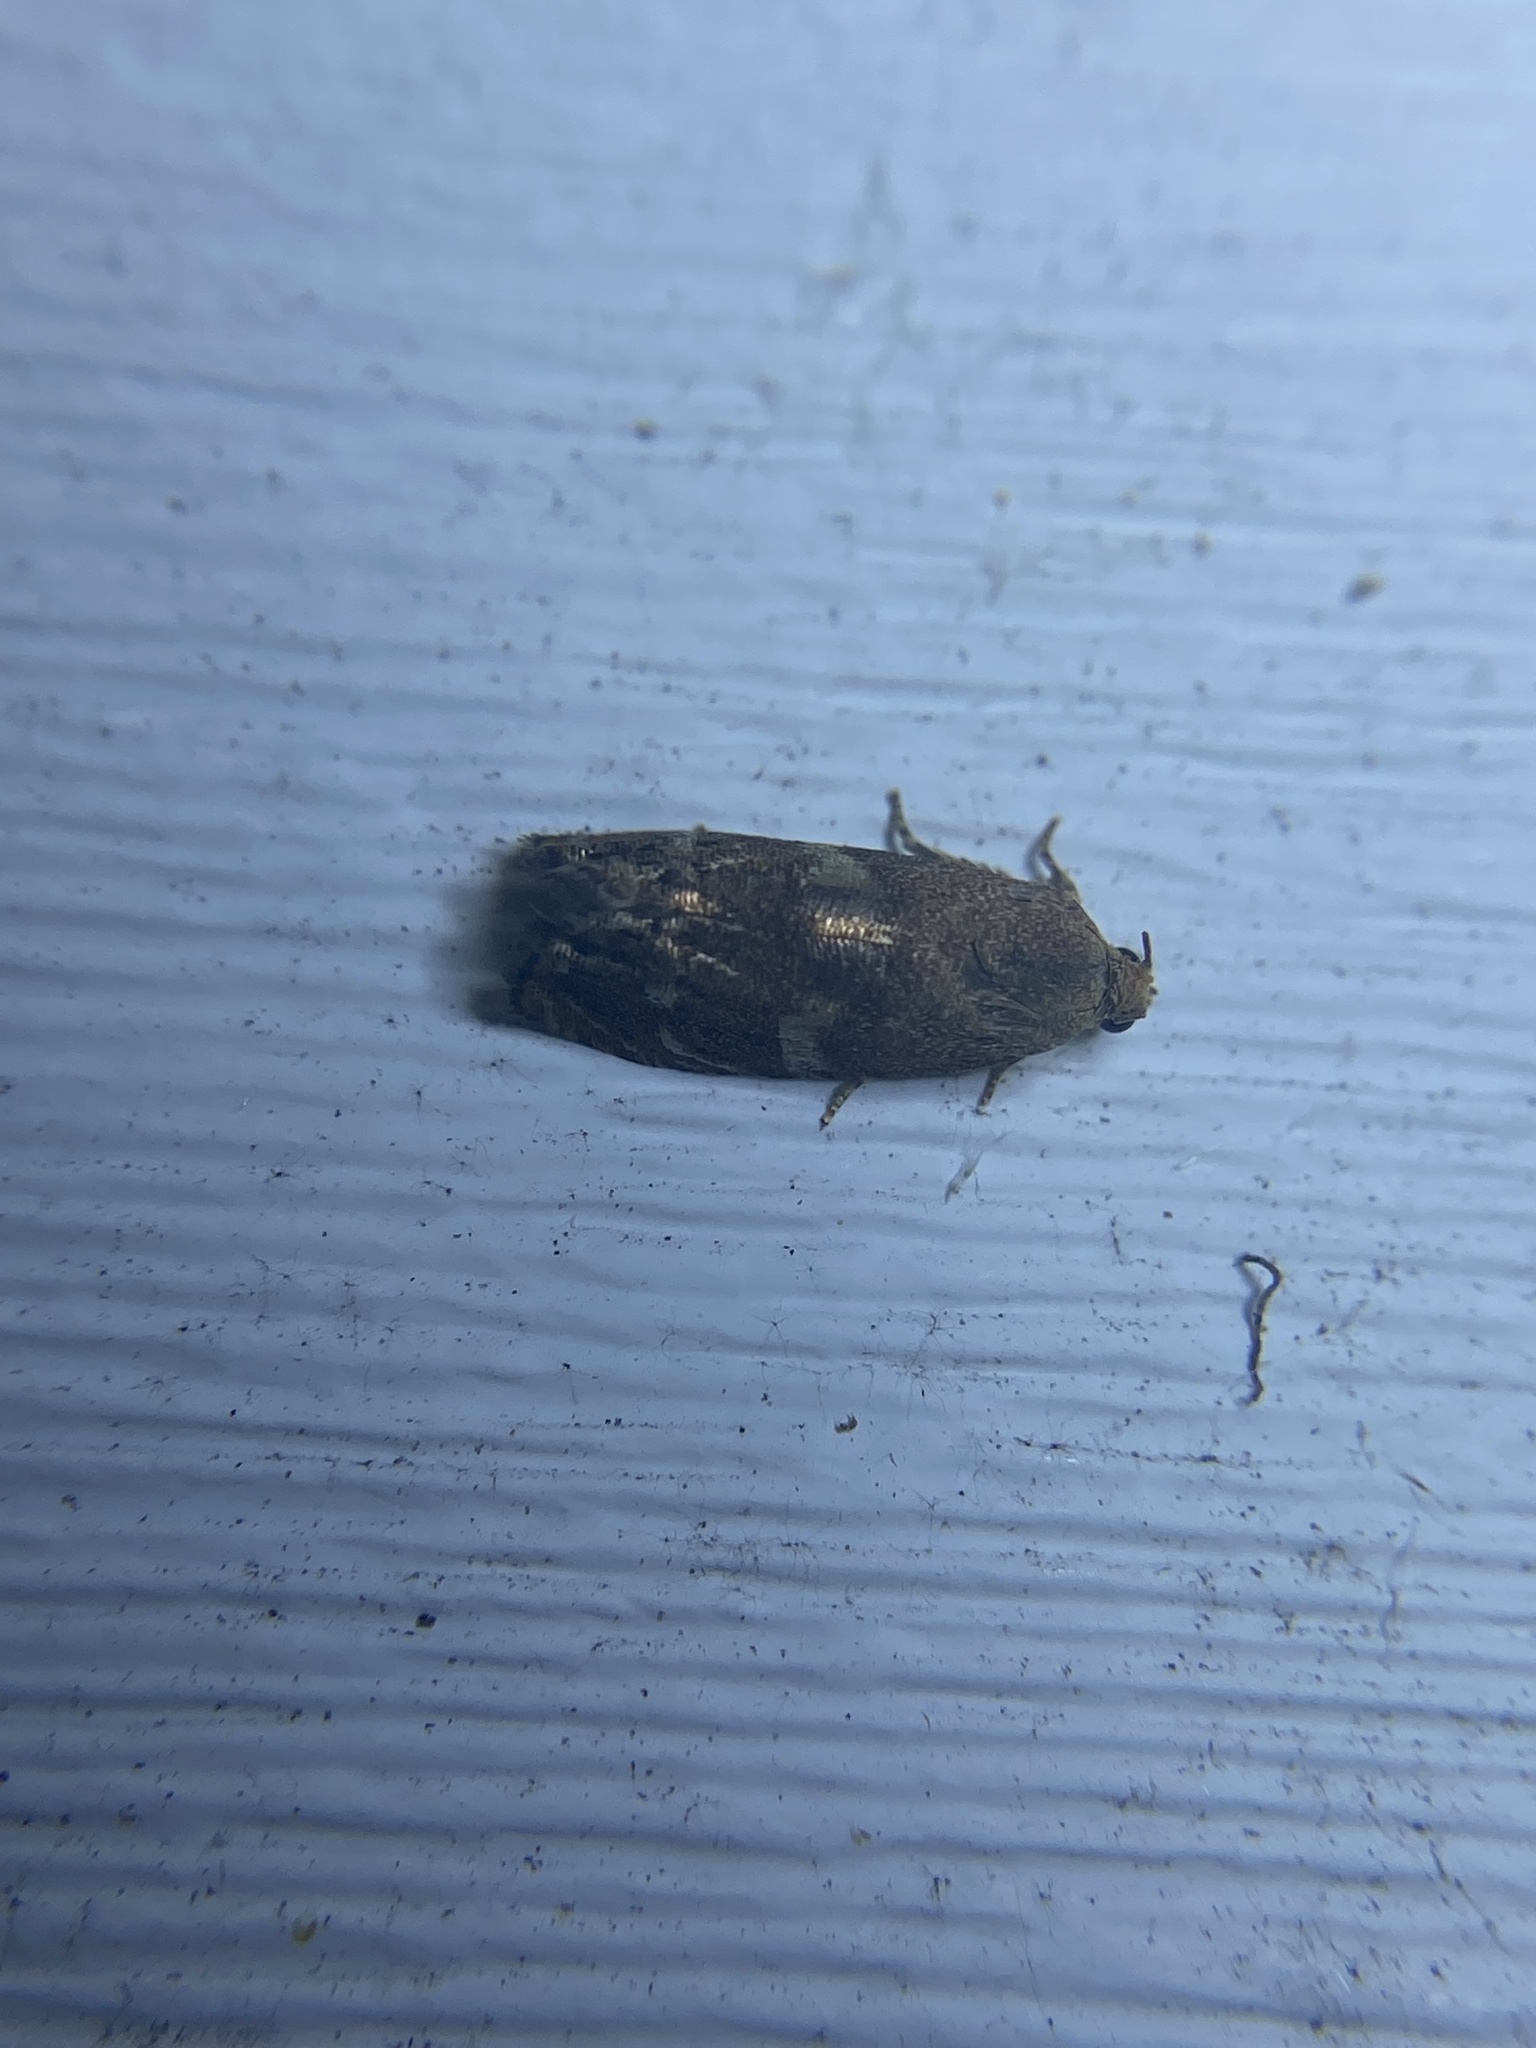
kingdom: Animalia
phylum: Arthropoda
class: Insecta
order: Lepidoptera
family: Tortricidae
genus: Cydia
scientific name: Cydia latiferreana
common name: Filbertworm moth
